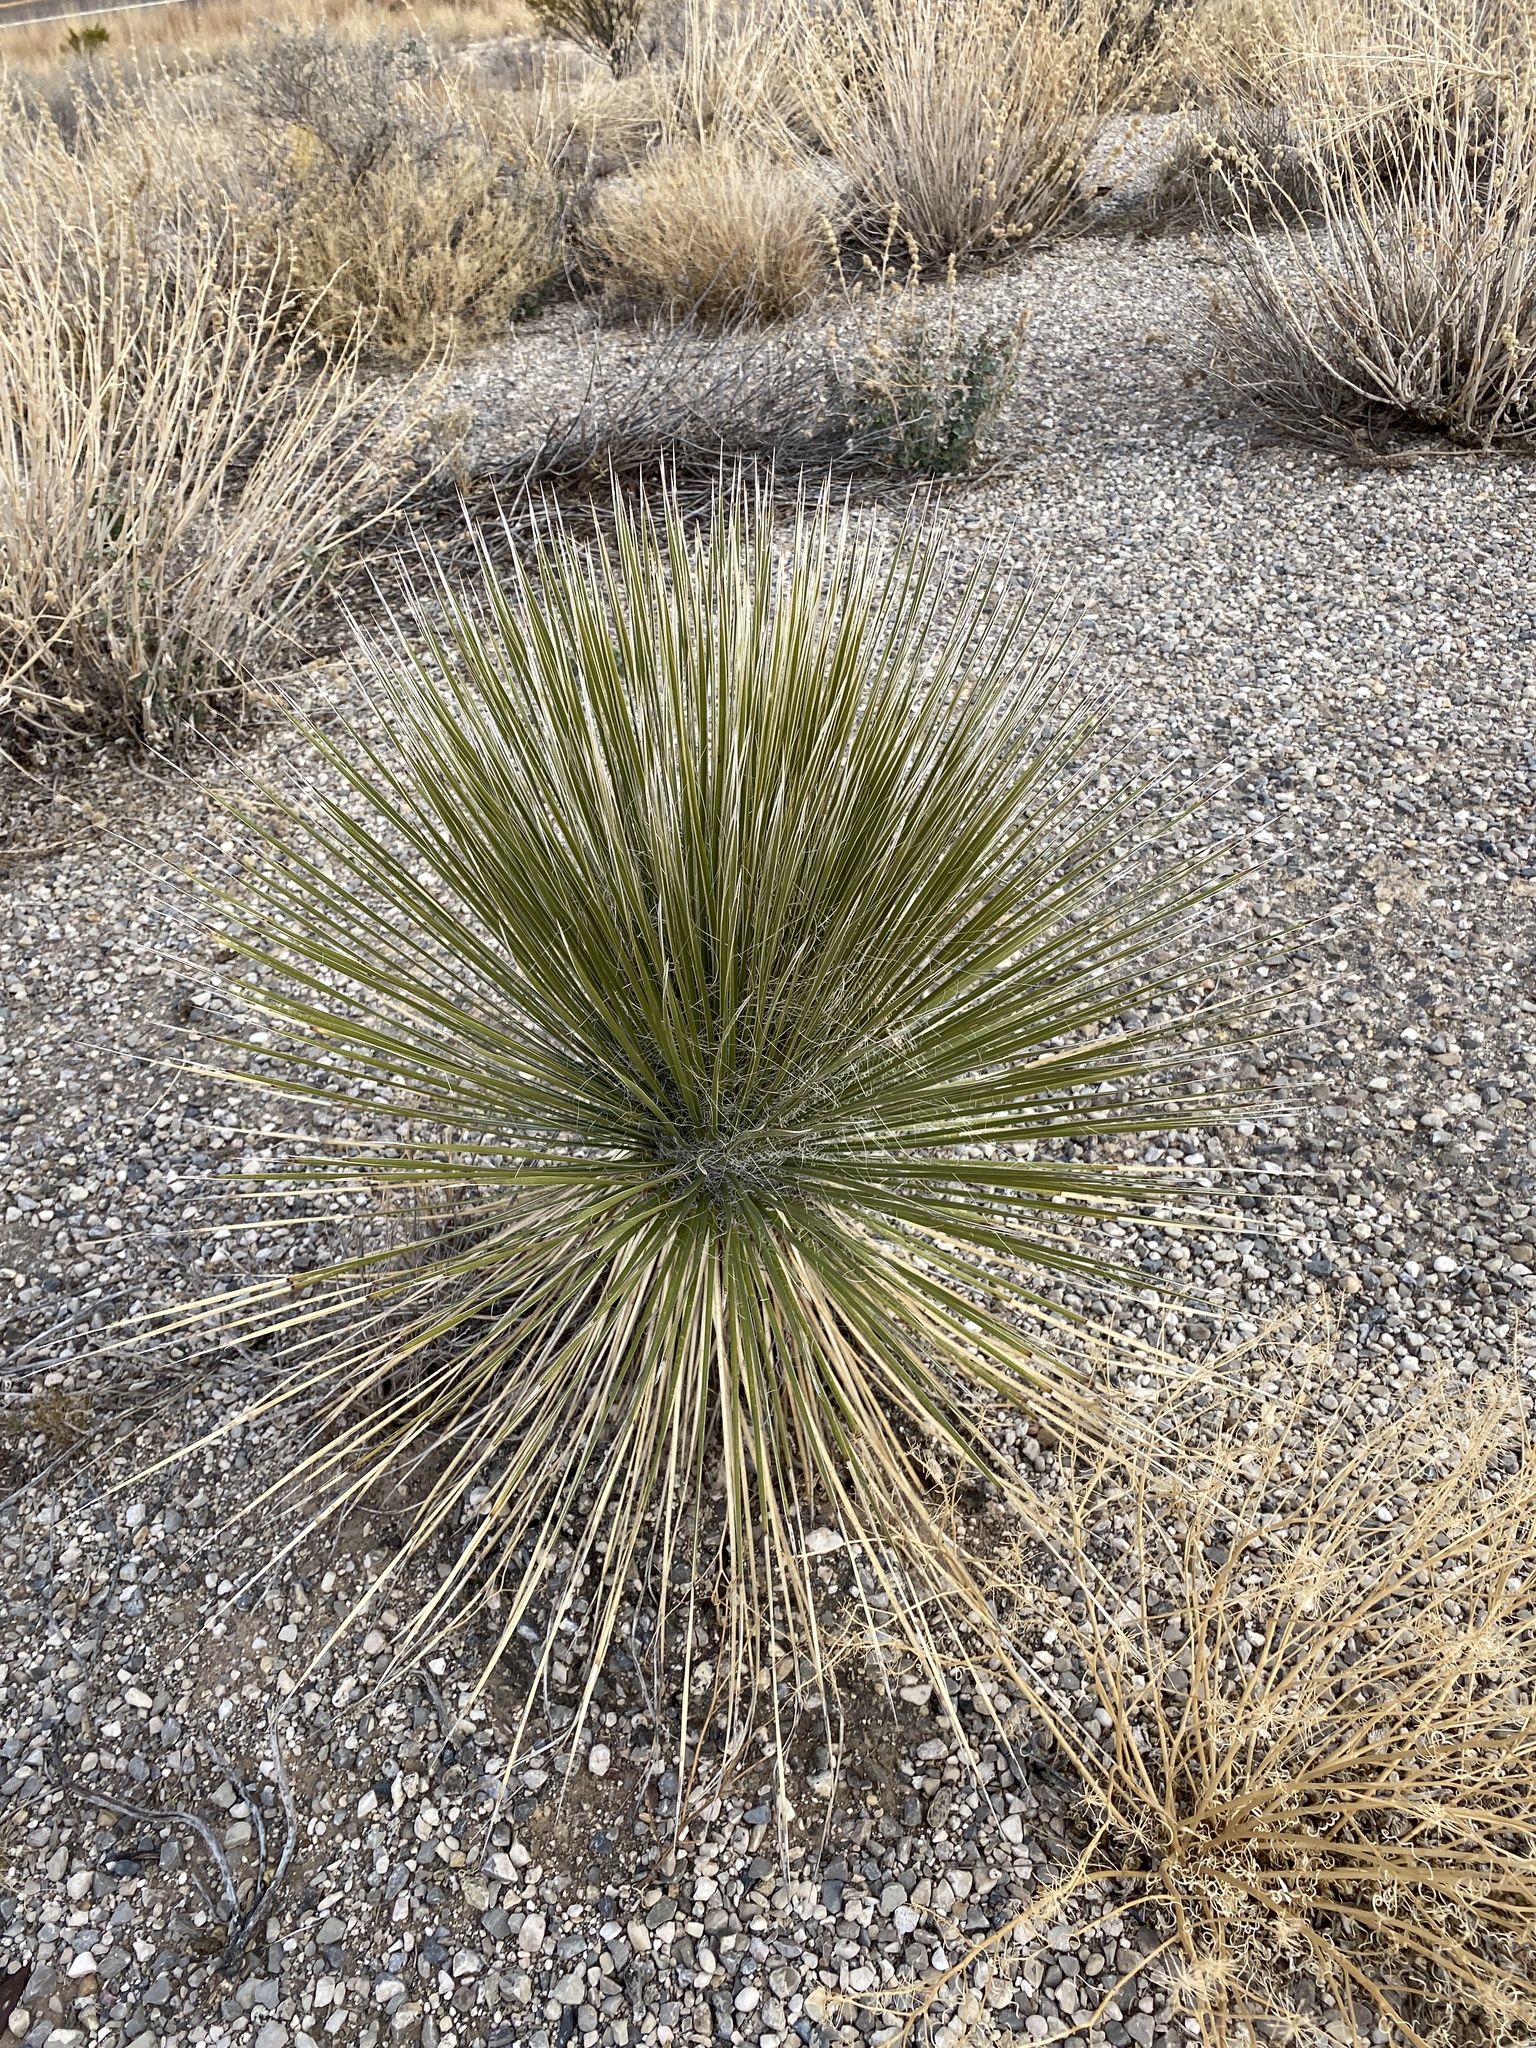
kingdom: Plantae
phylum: Tracheophyta
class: Liliopsida
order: Asparagales
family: Asparagaceae
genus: Yucca
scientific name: Yucca elata
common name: Palmella
